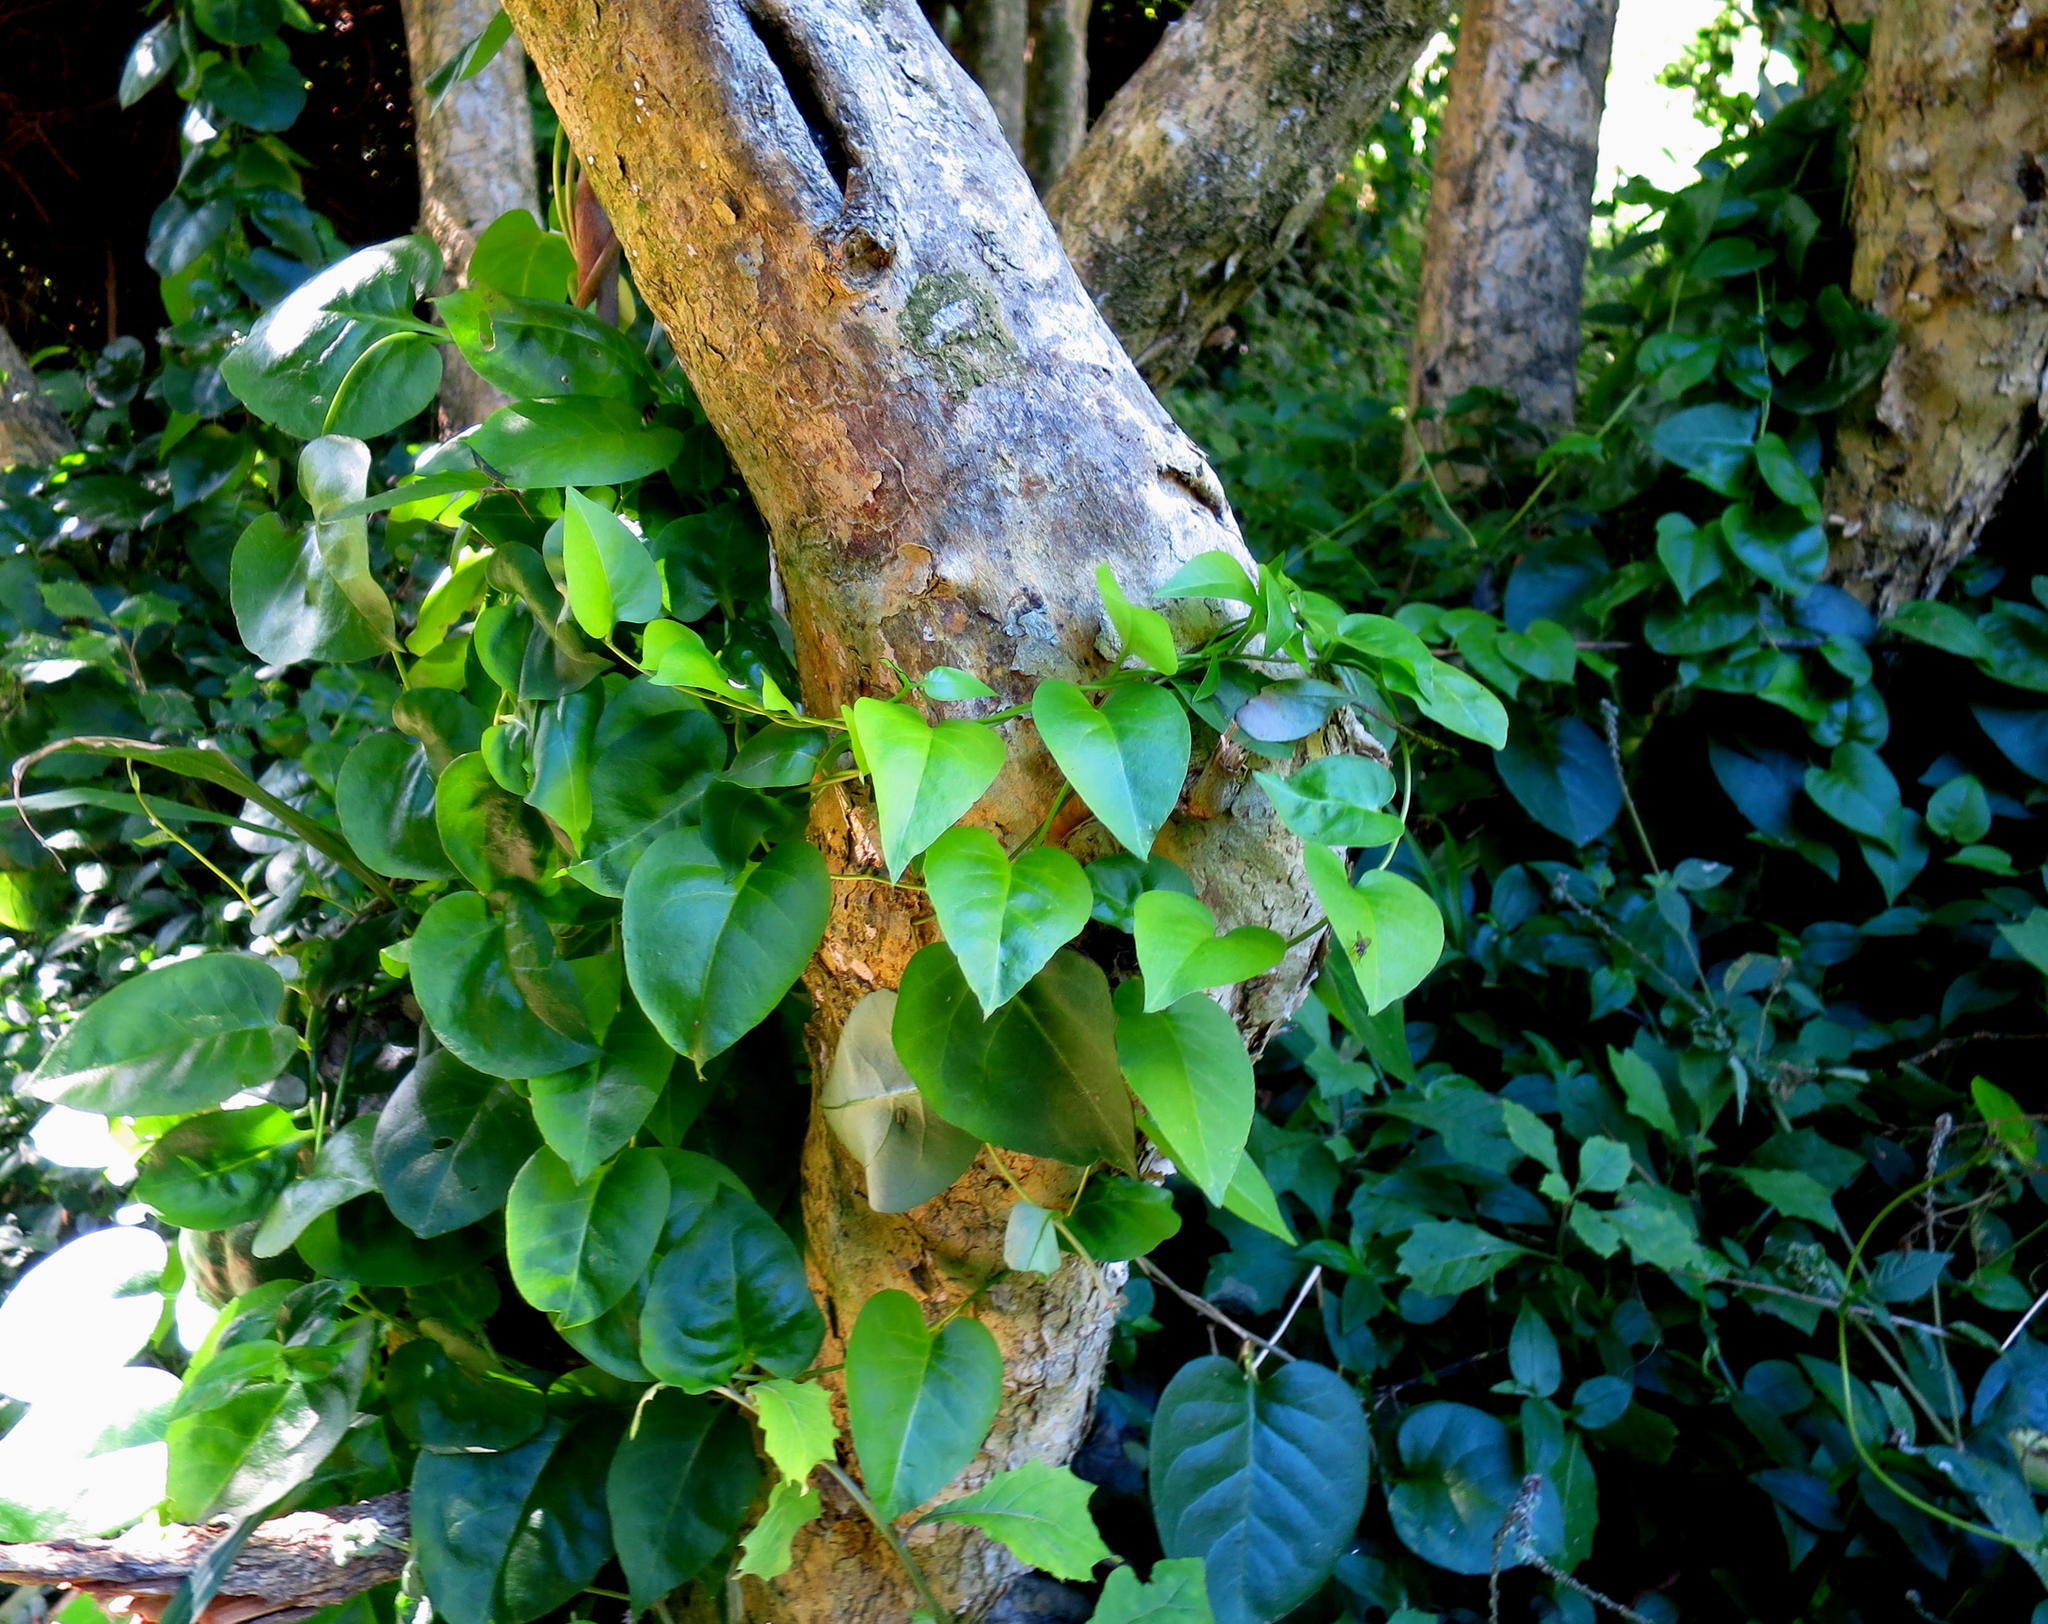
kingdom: Plantae
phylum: Tracheophyta
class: Magnoliopsida
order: Caryophyllales
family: Basellaceae
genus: Anredera
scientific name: Anredera cordifolia
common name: Heartleaf madeiravine
